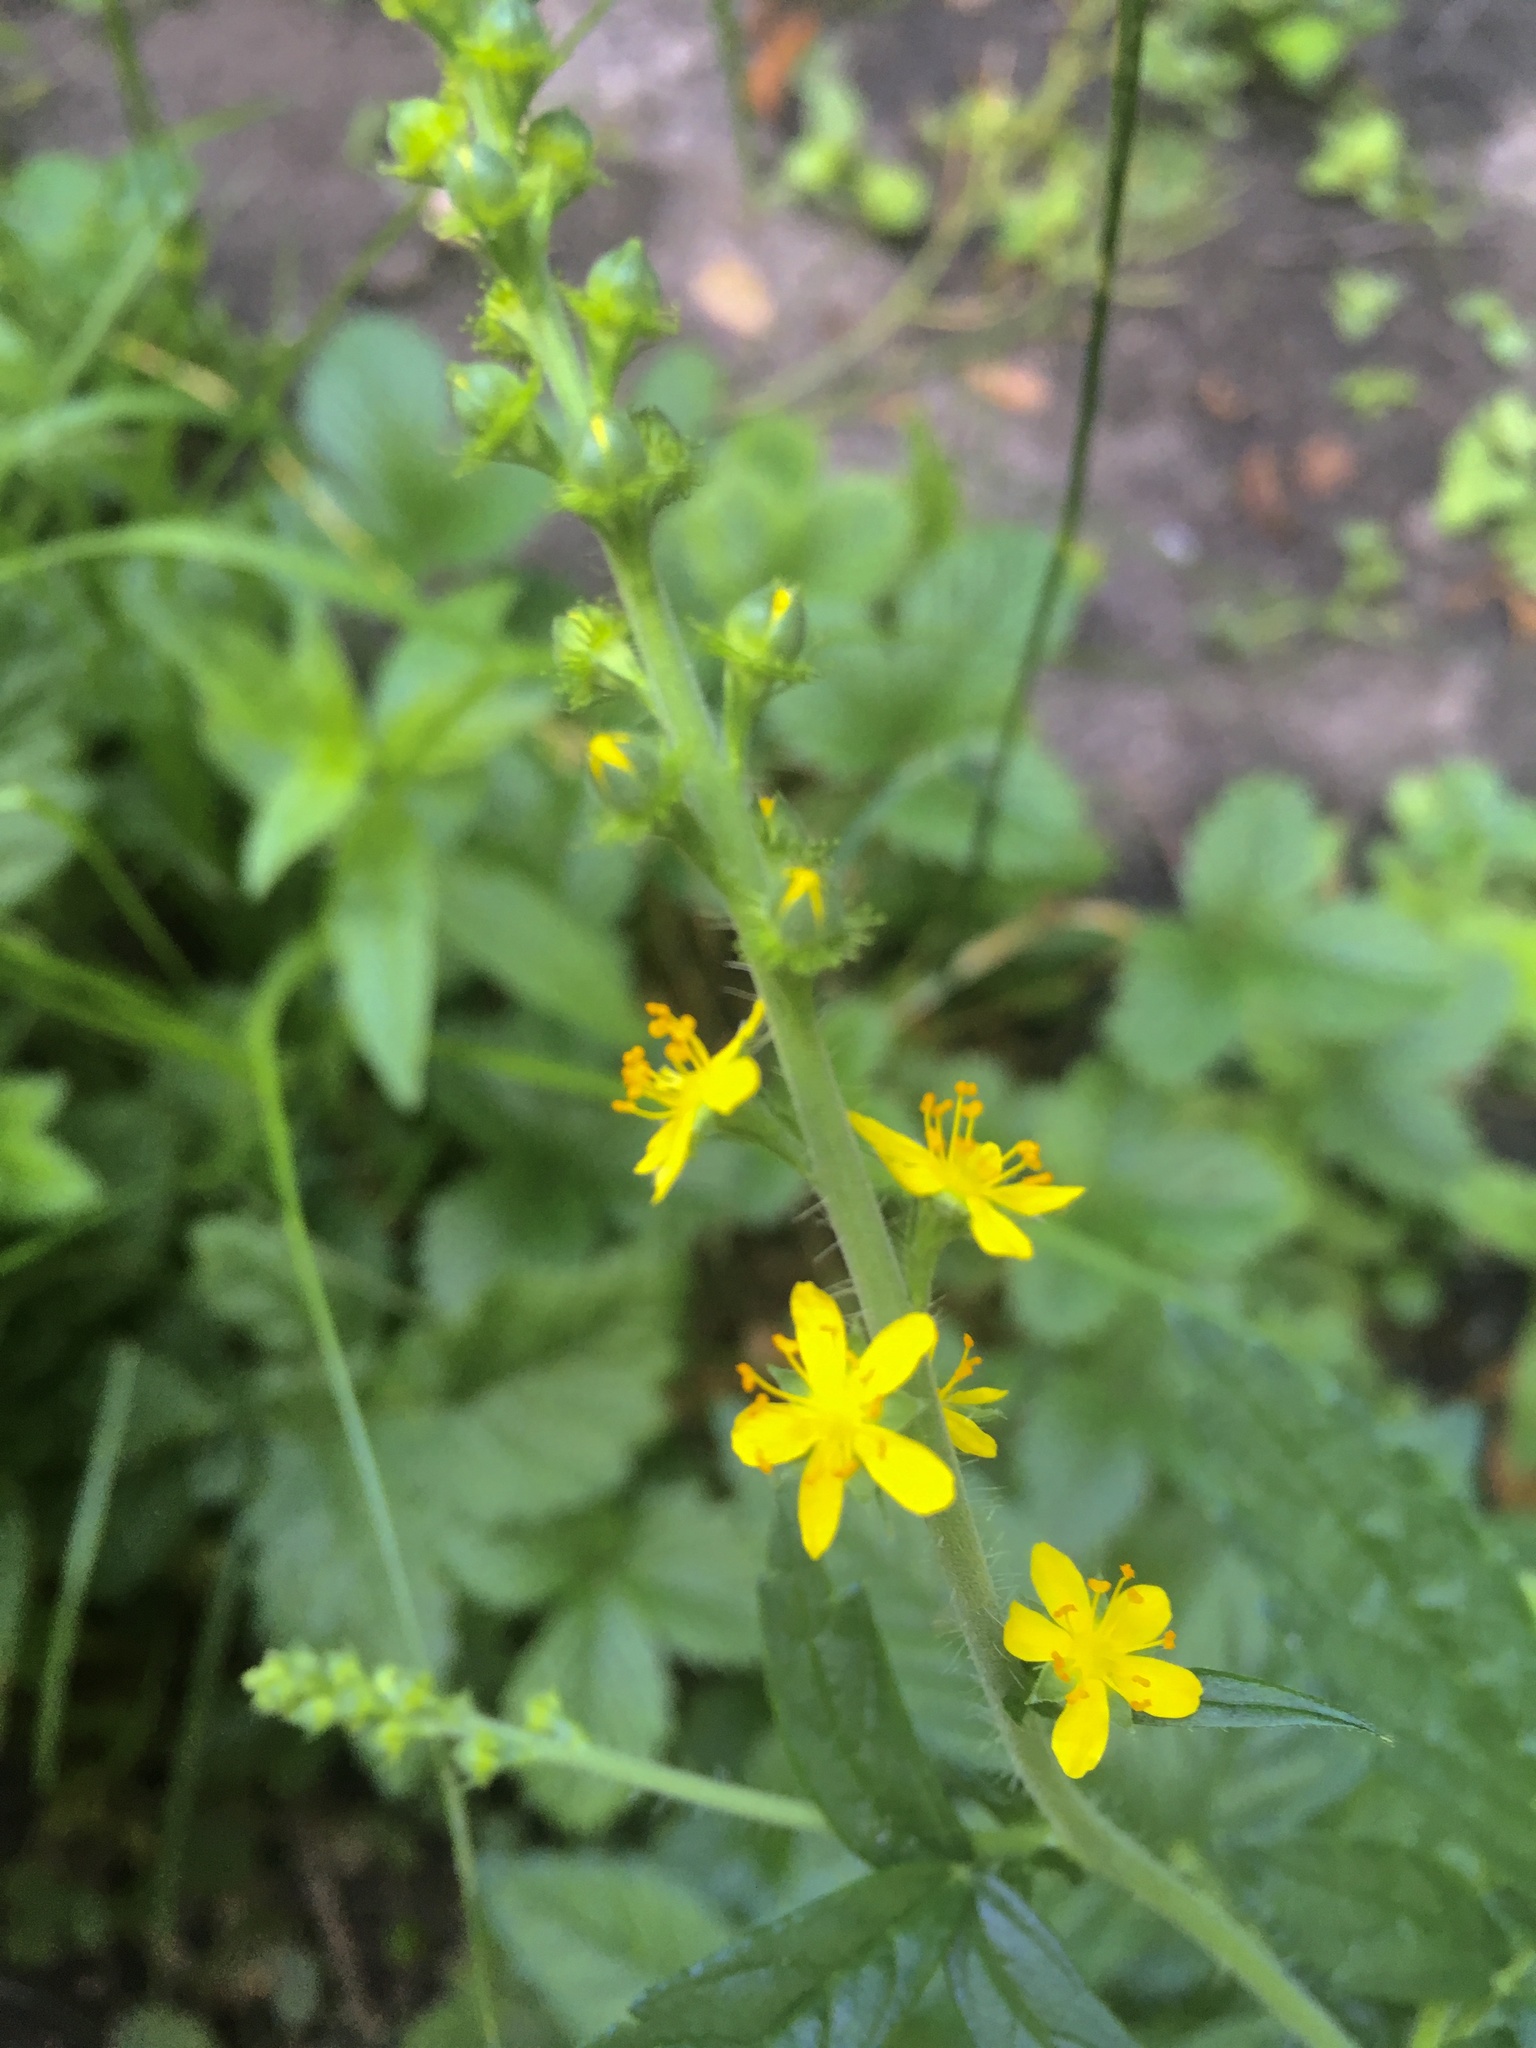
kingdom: Plantae
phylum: Tracheophyta
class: Magnoliopsida
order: Rosales
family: Rosaceae
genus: Agrimonia
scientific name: Agrimonia gryposepala
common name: Common agrimony
